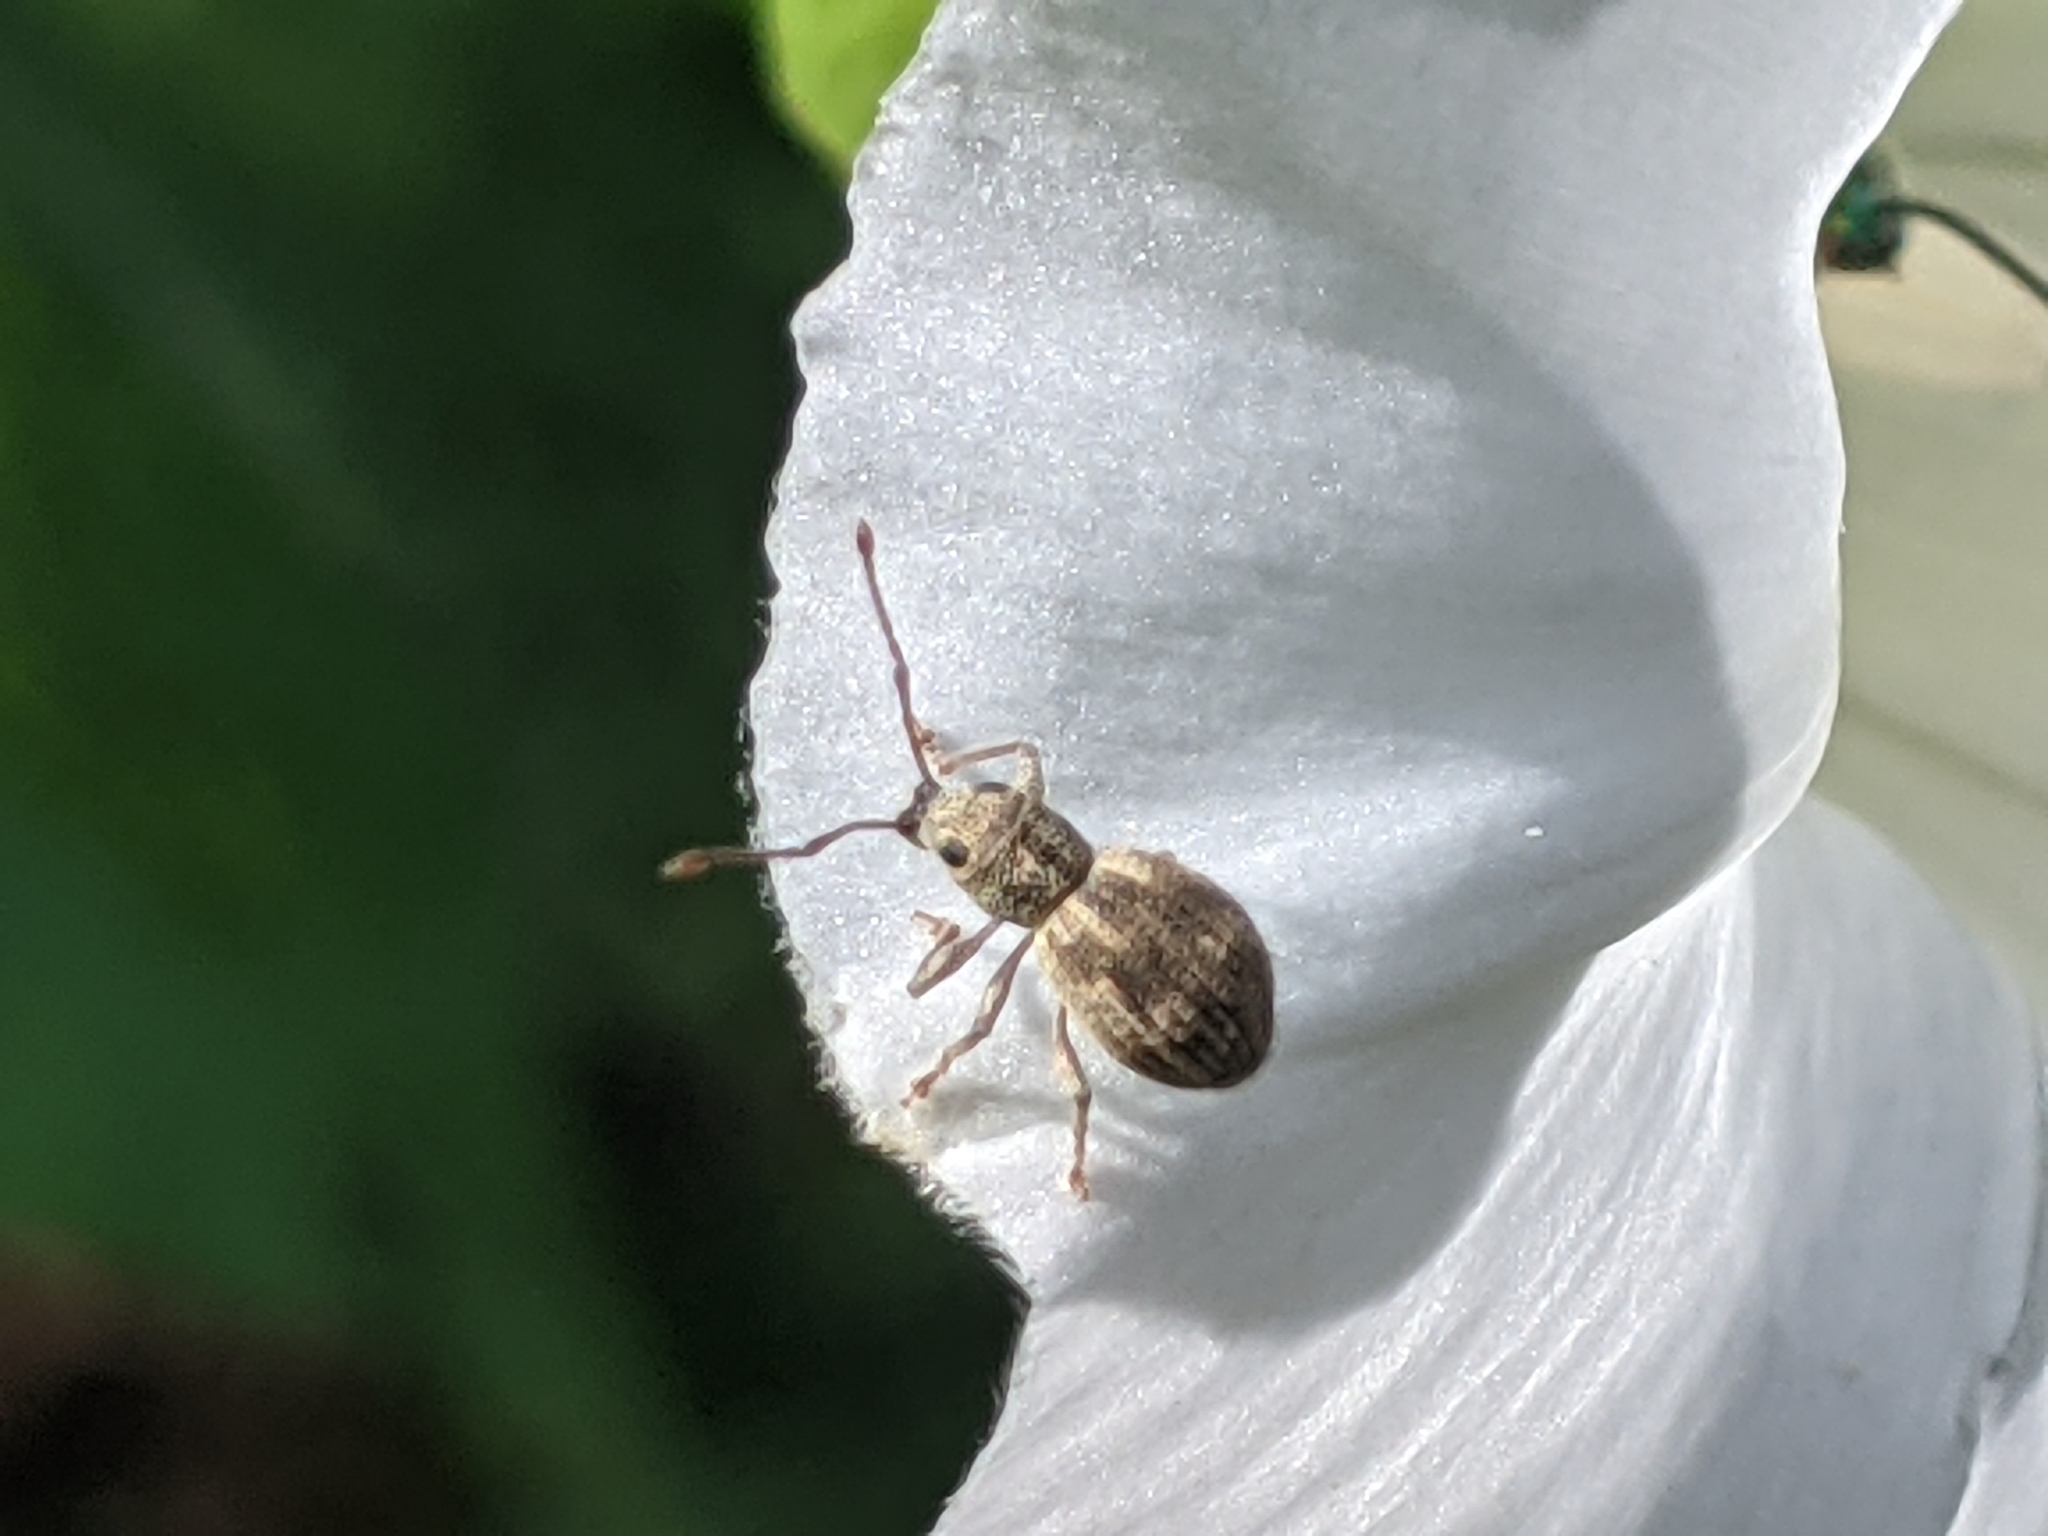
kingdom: Animalia
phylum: Arthropoda
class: Insecta
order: Coleoptera
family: Curculionidae
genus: Calomycterus
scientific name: Calomycterus setarius
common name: Weevil
